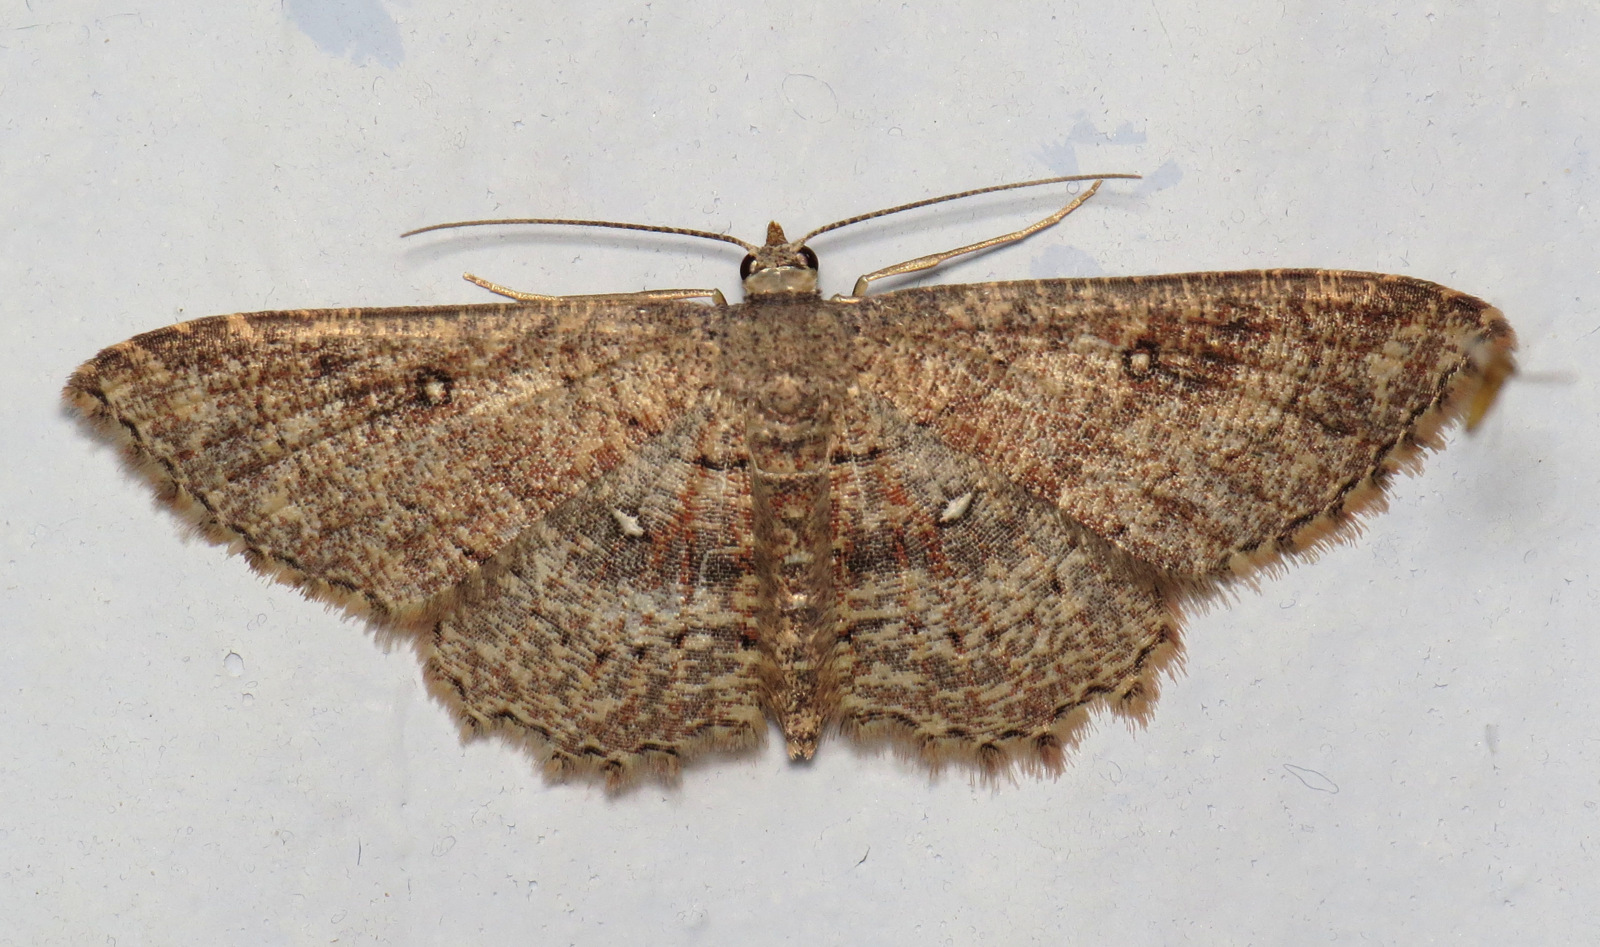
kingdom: Animalia
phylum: Arthropoda
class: Insecta
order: Lepidoptera
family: Geometridae
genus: Cyclophora
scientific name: Cyclophora nanaria
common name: Cankerworm
